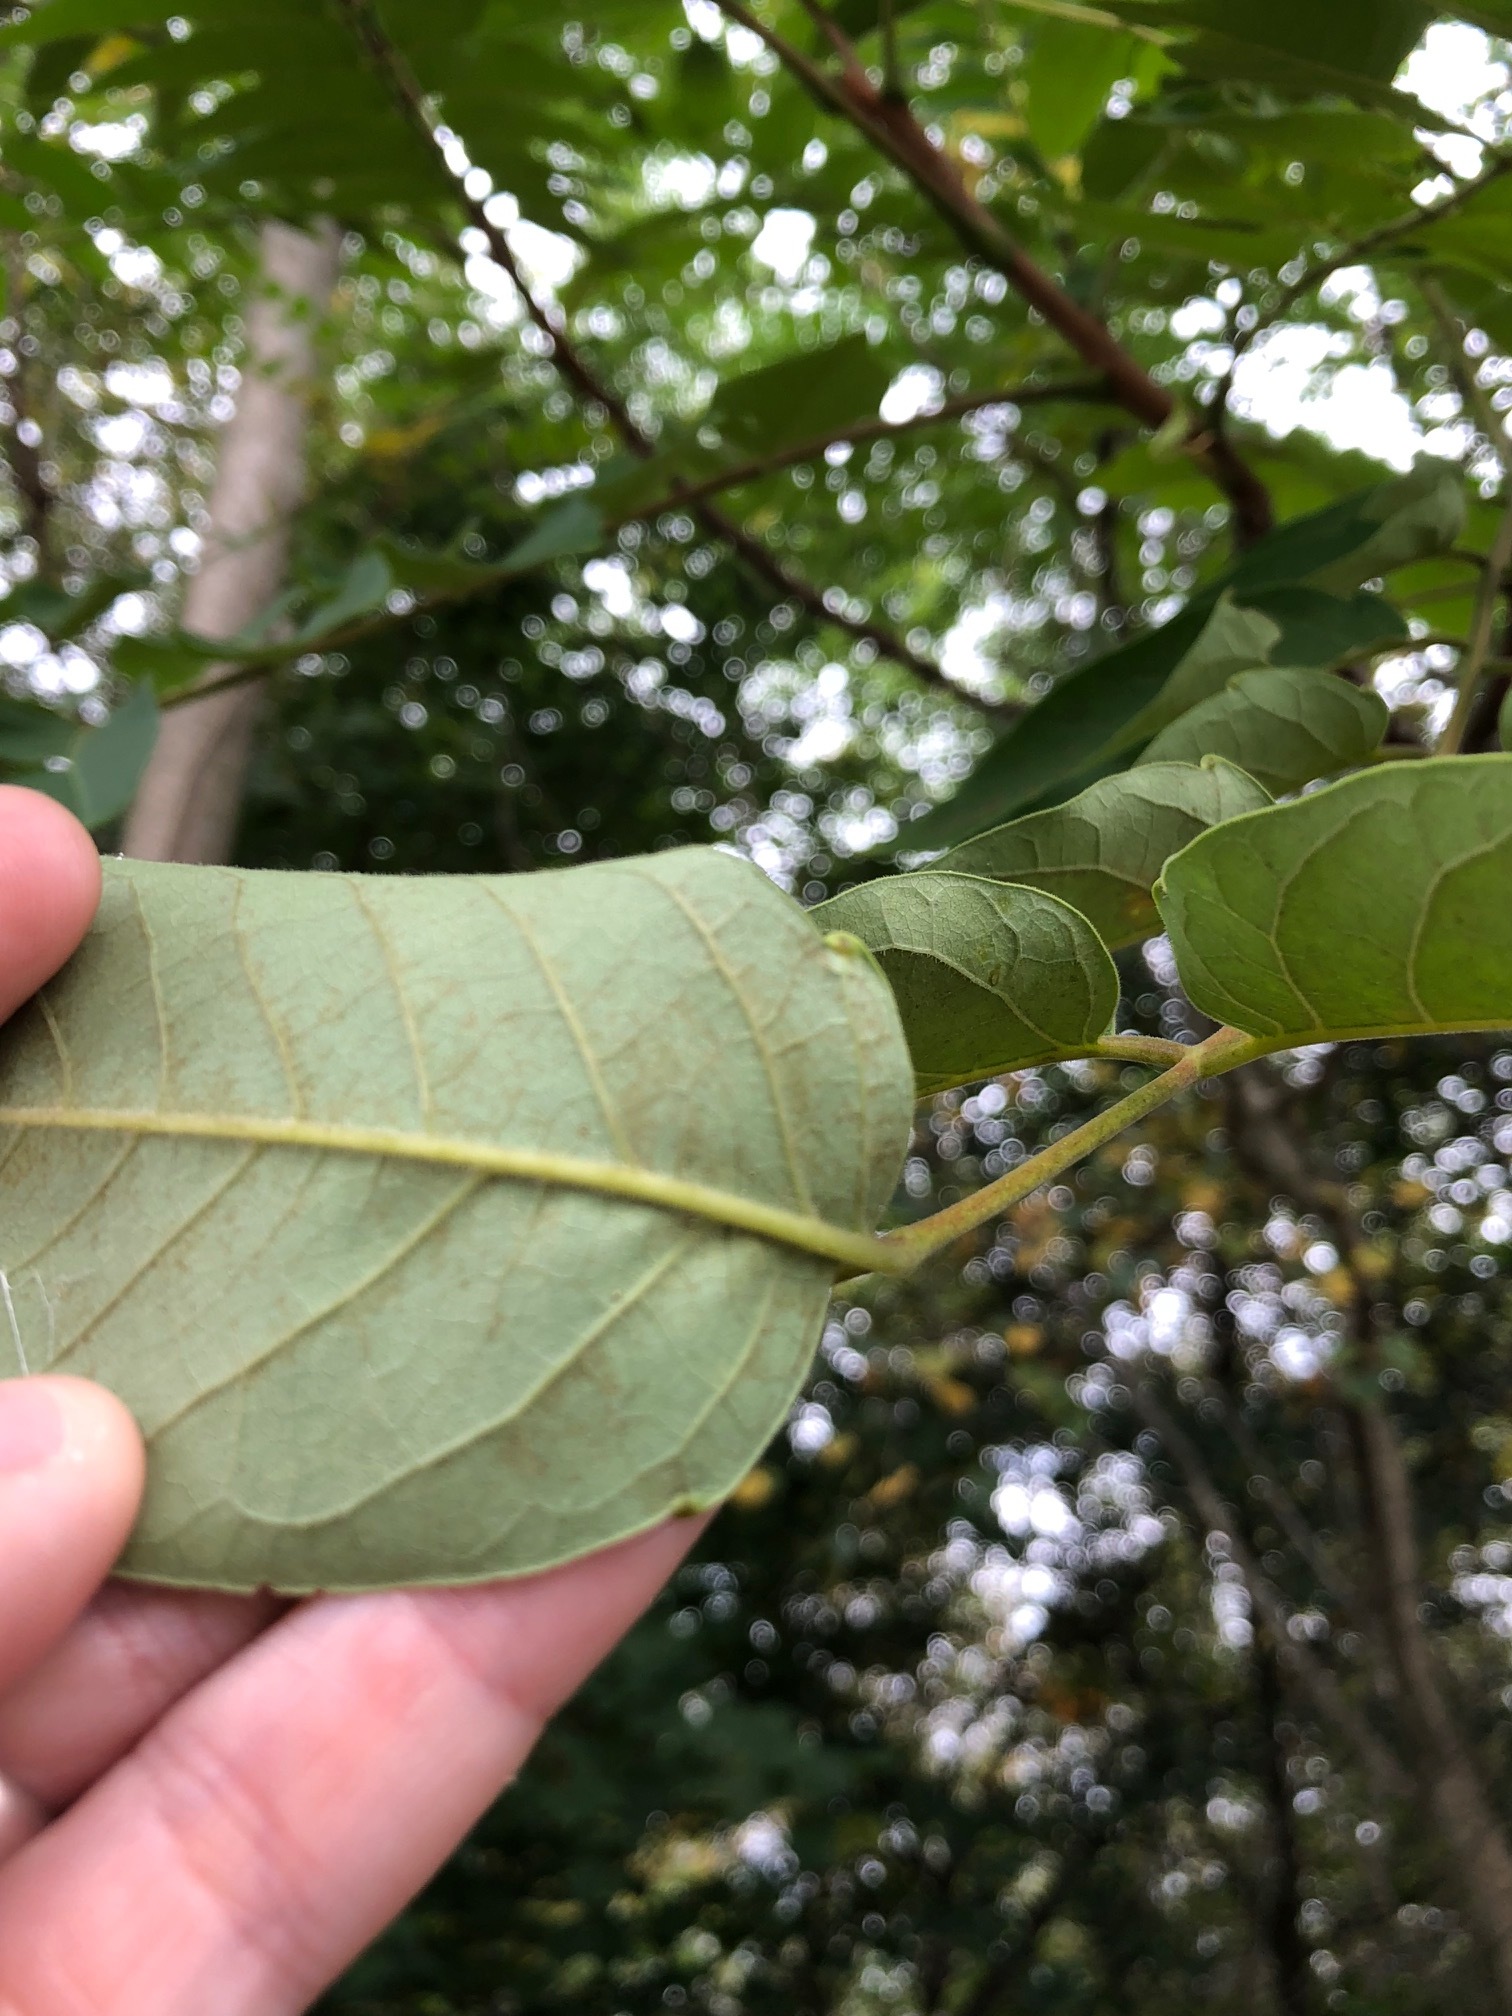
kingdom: Plantae
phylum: Tracheophyta
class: Magnoliopsida
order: Sapindales
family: Simaroubaceae
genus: Ailanthus
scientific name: Ailanthus altissima
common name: Tree-of-heaven
